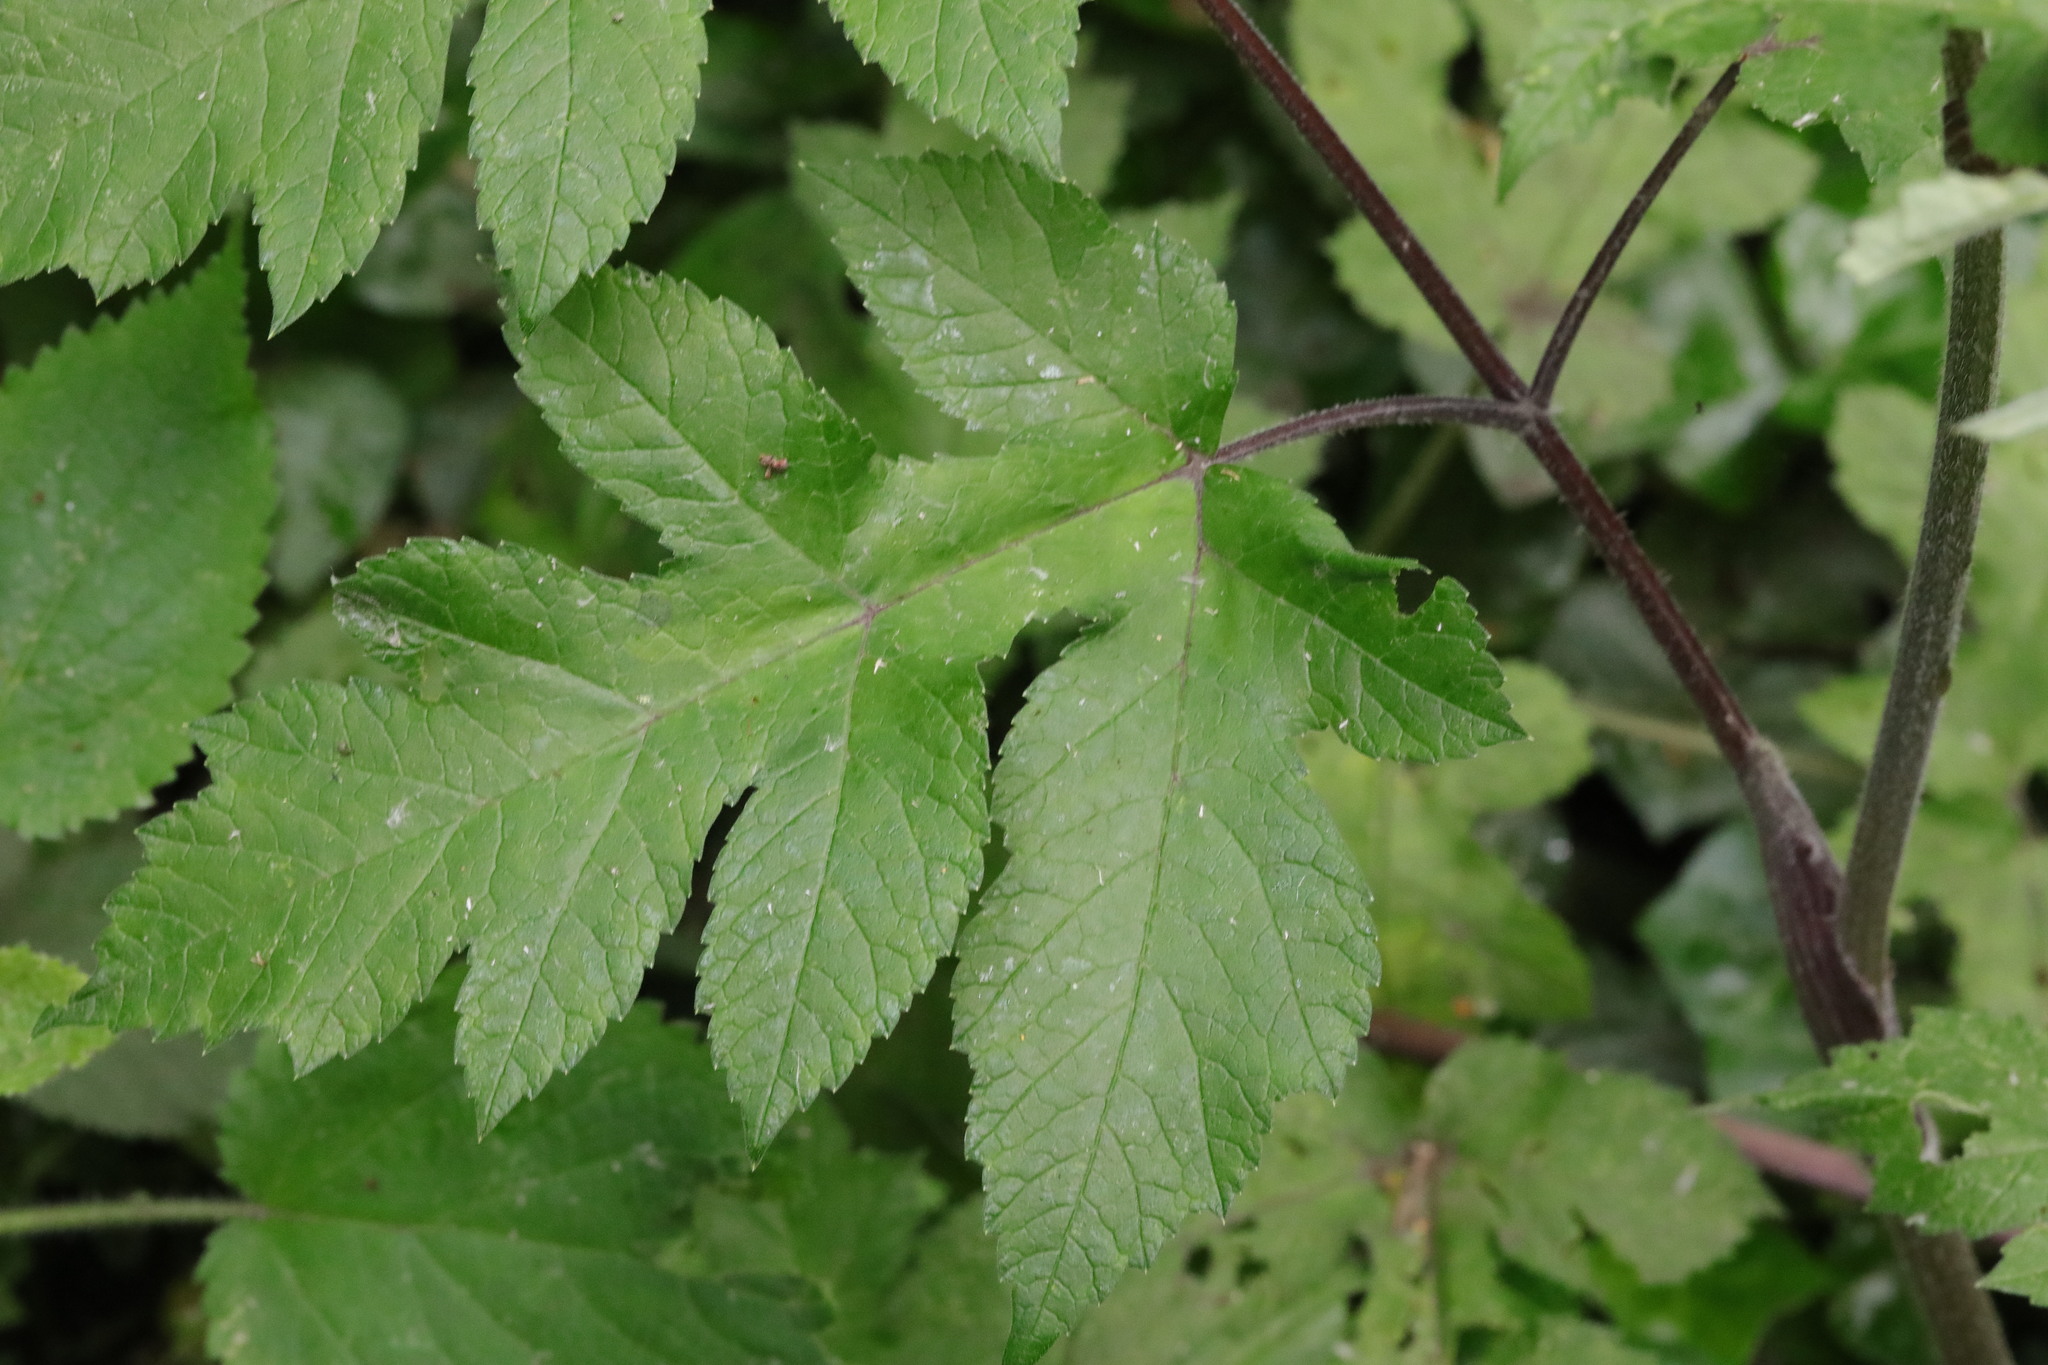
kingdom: Plantae
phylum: Tracheophyta
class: Magnoliopsida
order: Apiales
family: Apiaceae
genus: Heracleum
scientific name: Heracleum sphondylium
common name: Hogweed
